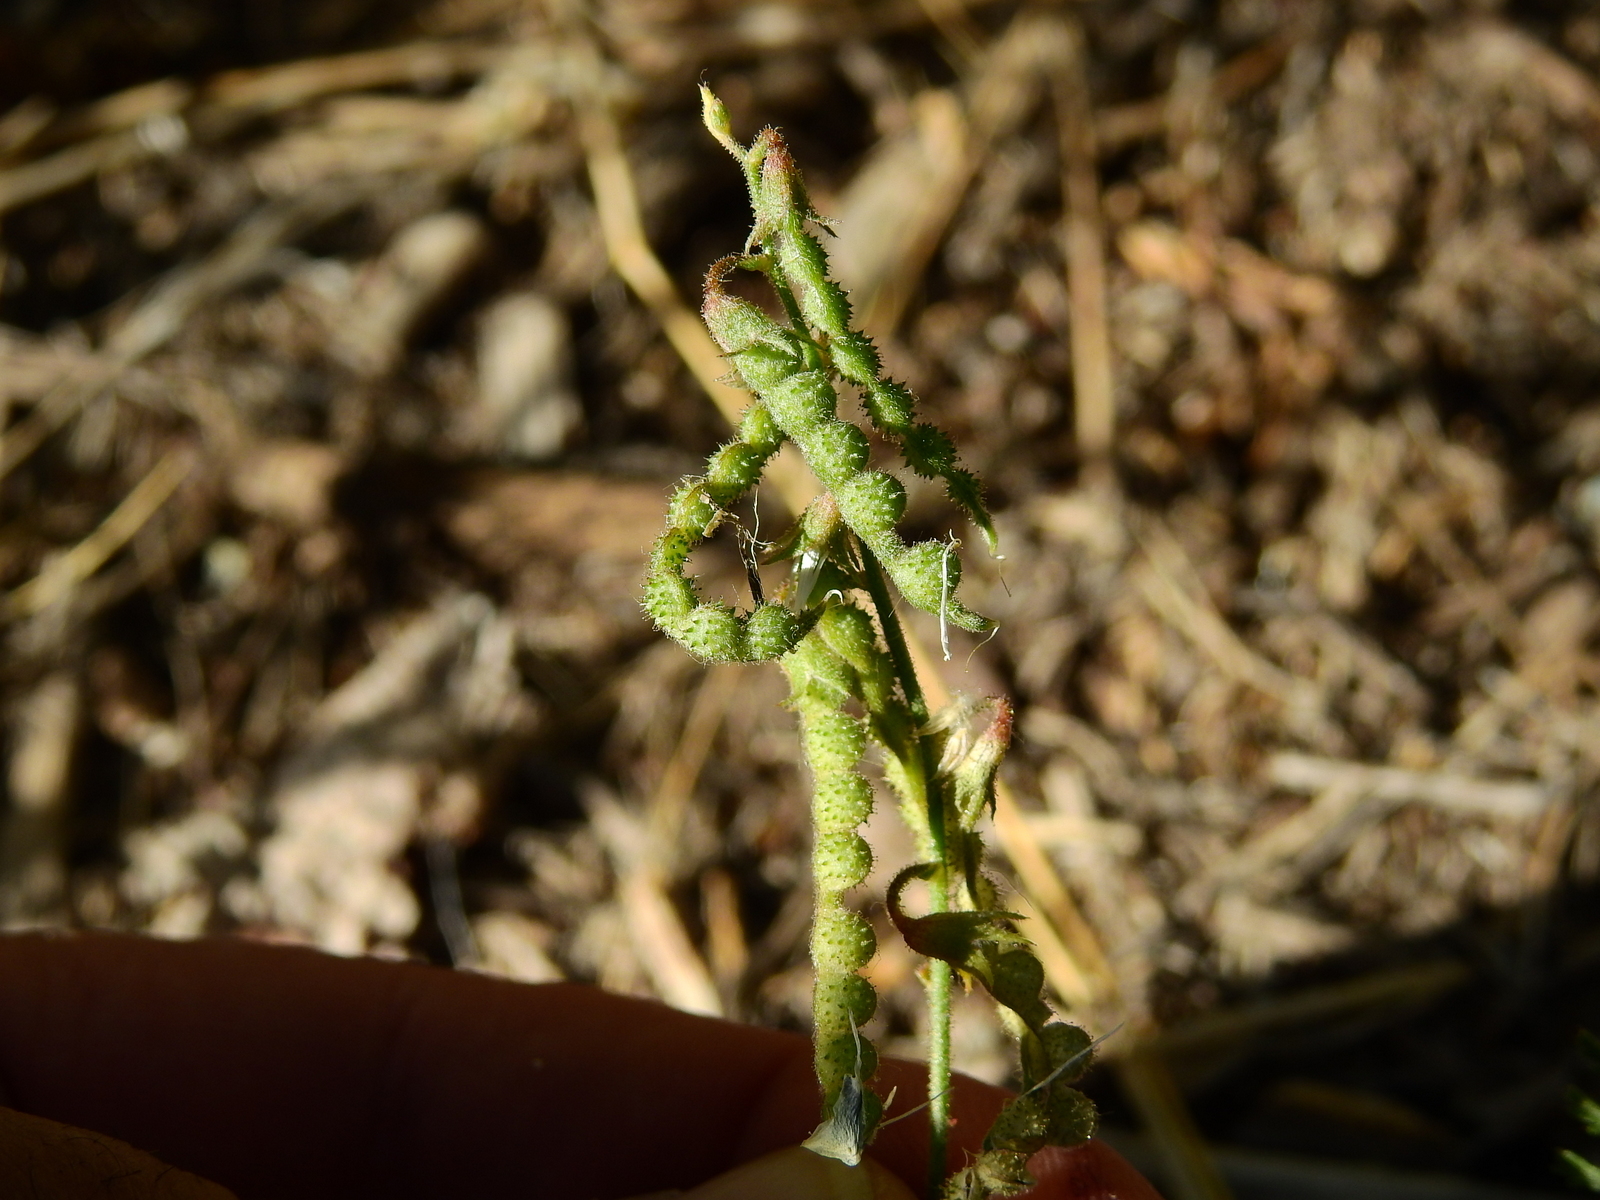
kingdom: Plantae
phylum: Tracheophyta
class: Magnoliopsida
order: Fabales
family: Fabaceae
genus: Adesmia
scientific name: Adesmia muricata
